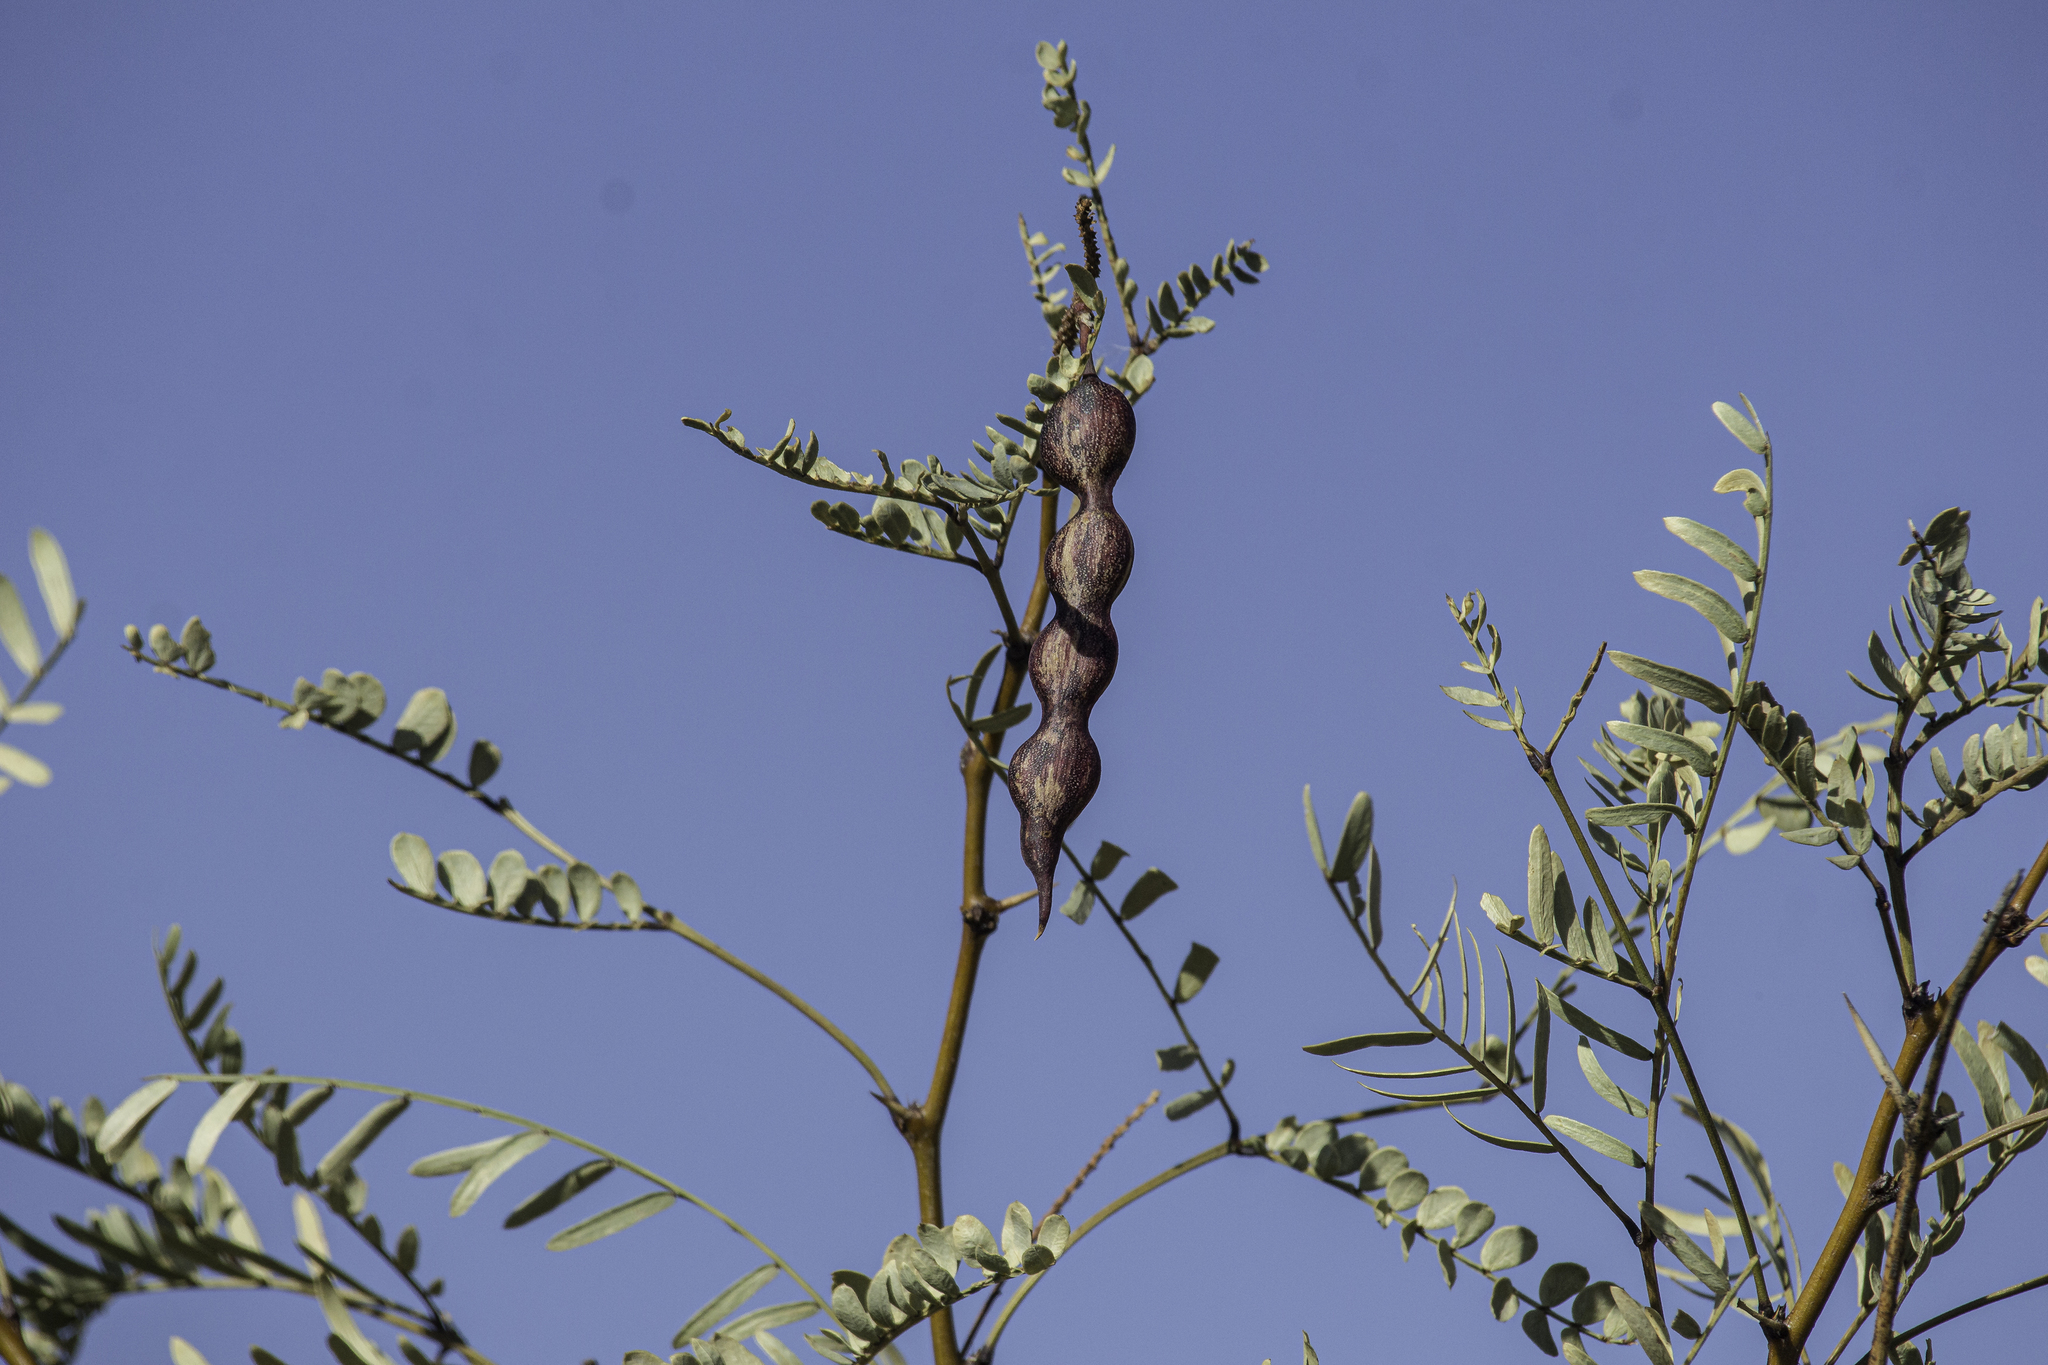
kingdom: Plantae
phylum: Tracheophyta
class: Magnoliopsida
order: Fabales
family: Fabaceae
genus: Prosopis
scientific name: Prosopis glandulosa
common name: Honey mesquite
